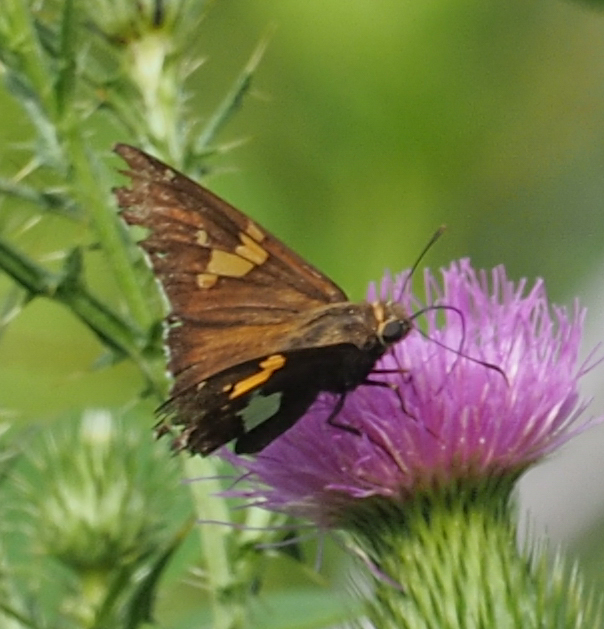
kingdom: Animalia
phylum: Arthropoda
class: Insecta
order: Lepidoptera
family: Hesperiidae
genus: Epargyreus
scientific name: Epargyreus clarus
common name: Silver-spotted skipper
